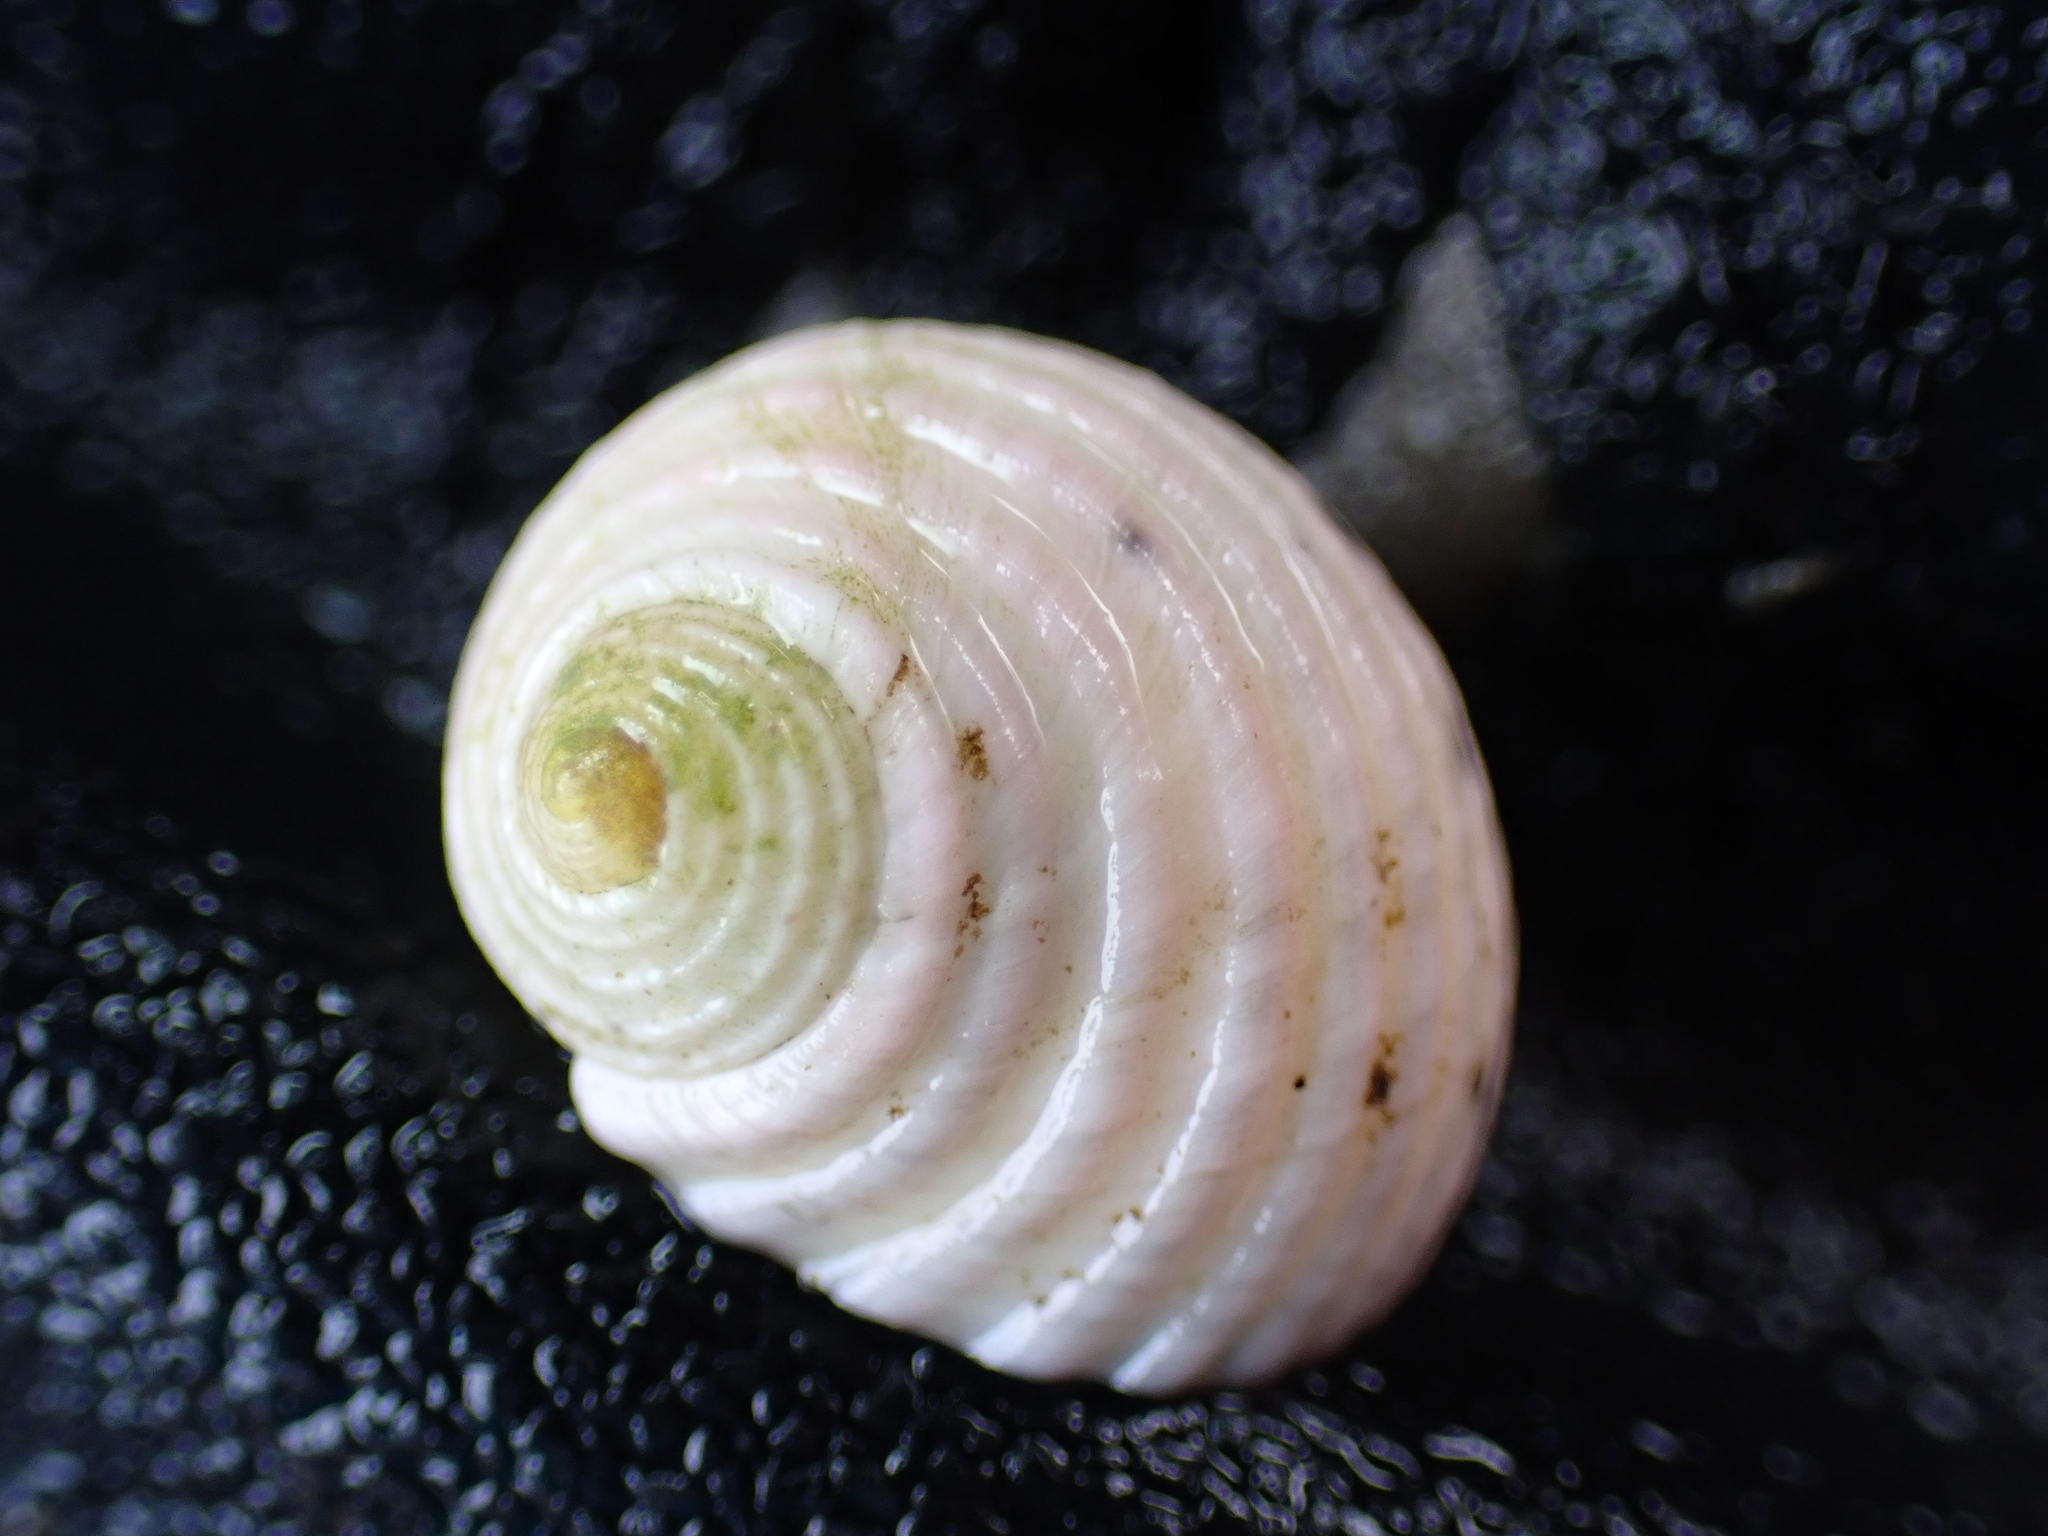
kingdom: Animalia
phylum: Mollusca
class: Gastropoda
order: Cycloneritida
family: Neritidae
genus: Nerita
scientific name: Nerita plicata
